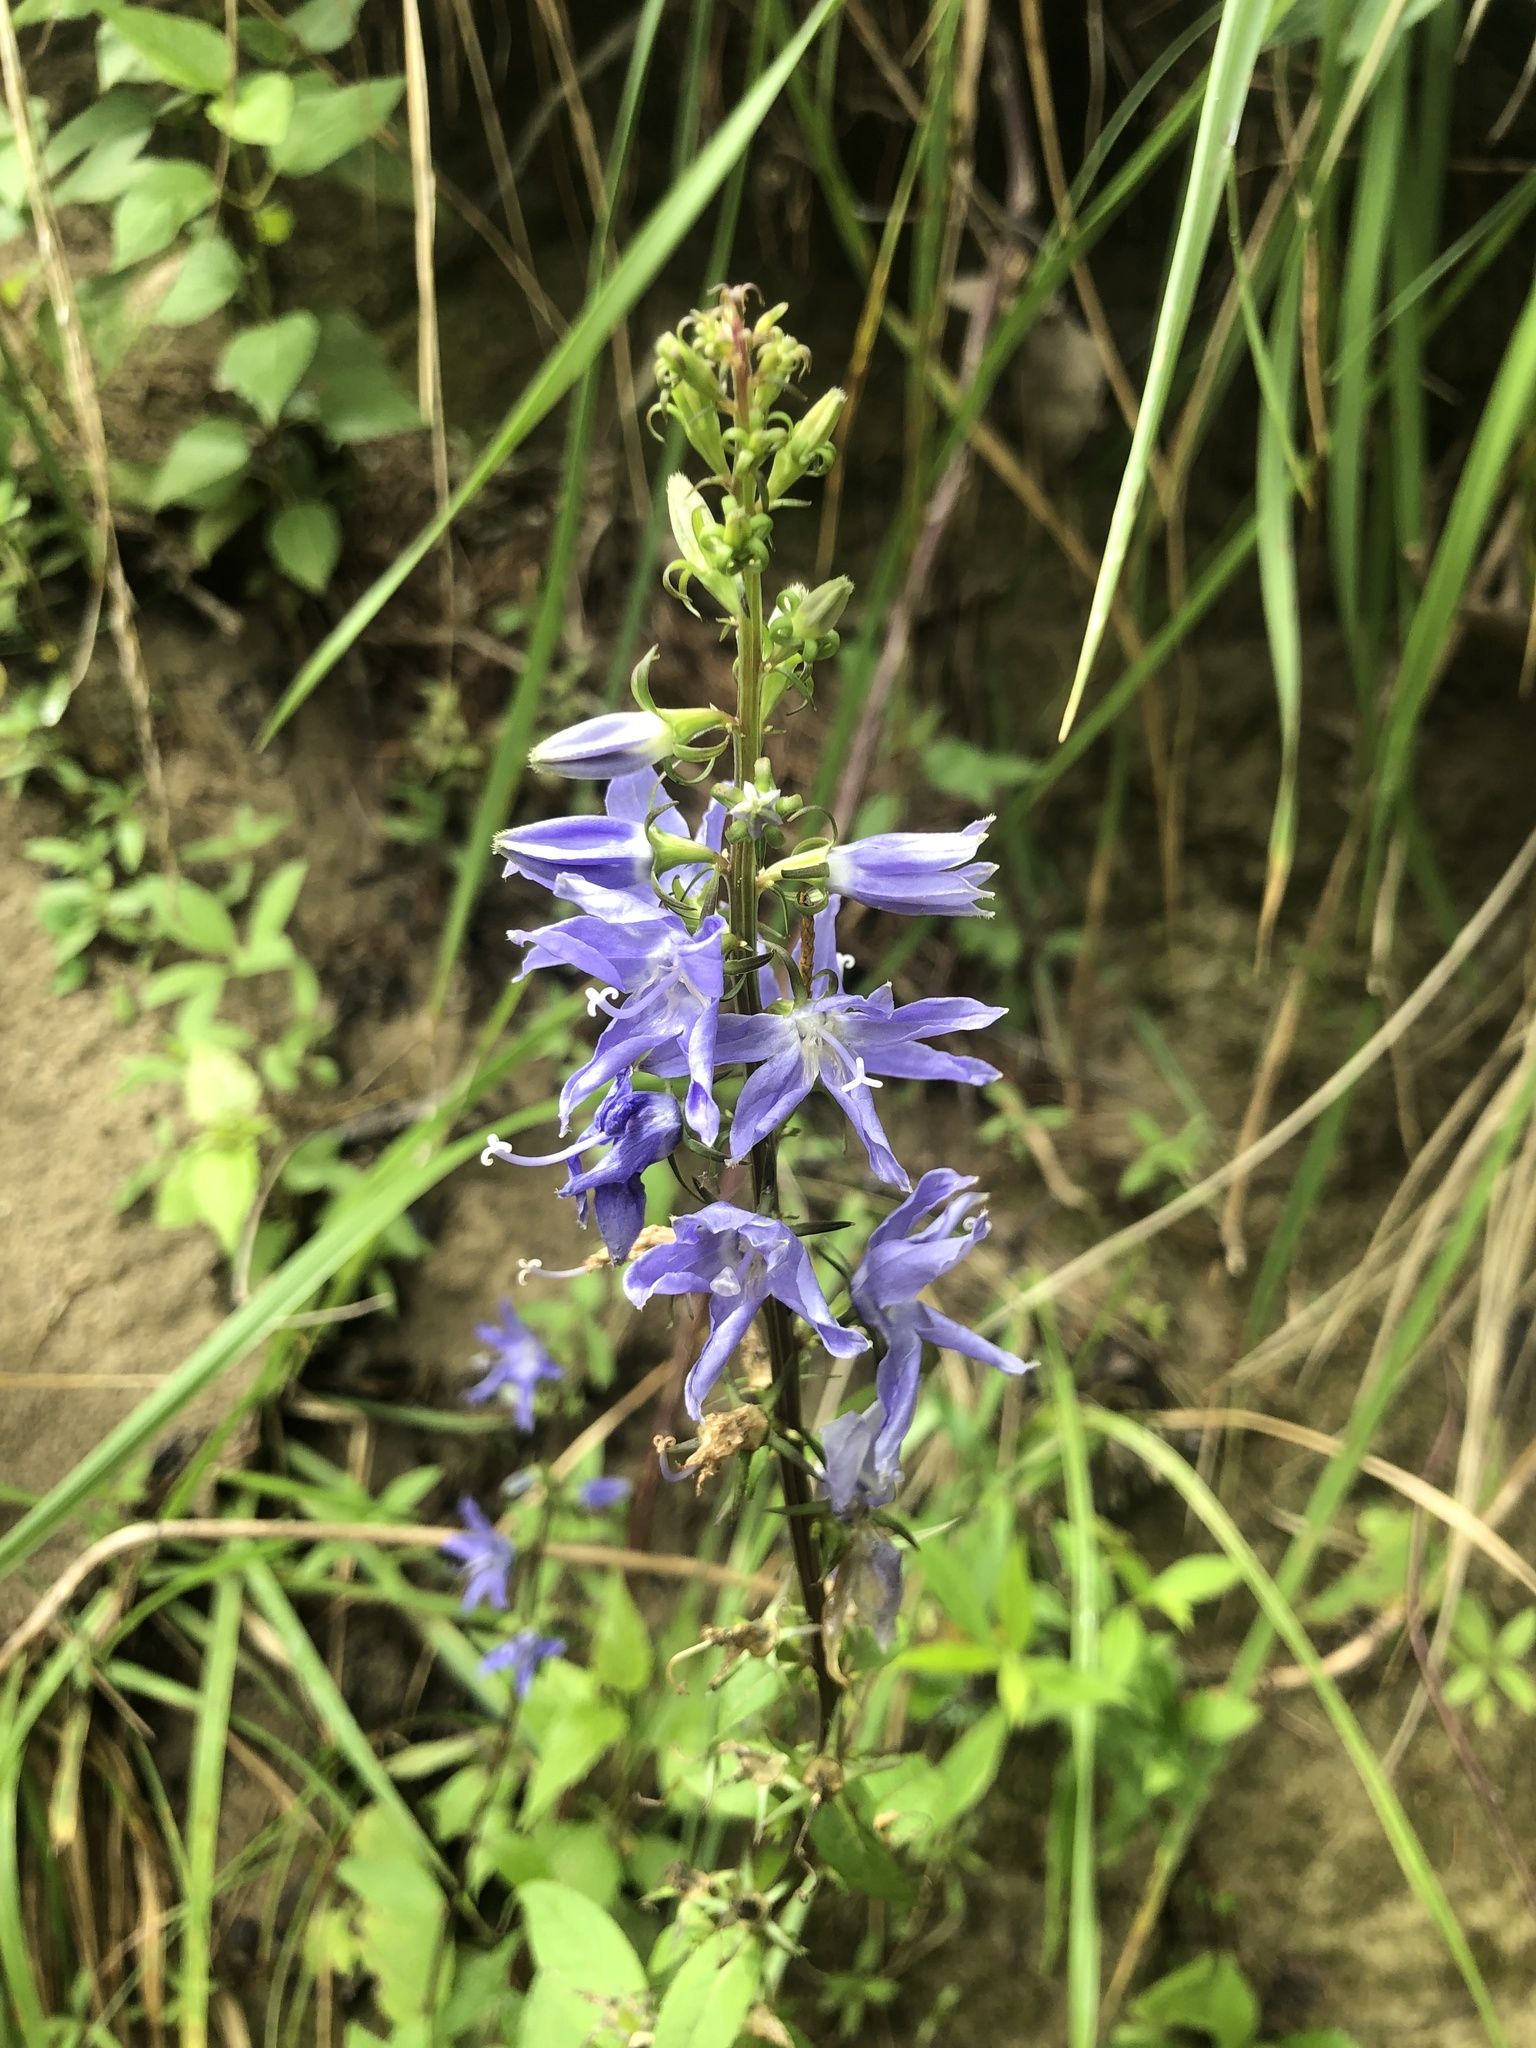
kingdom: Plantae
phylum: Tracheophyta
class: Magnoliopsida
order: Asterales
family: Campanulaceae
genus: Campanulastrum
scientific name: Campanulastrum americanum
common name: American bellflower
